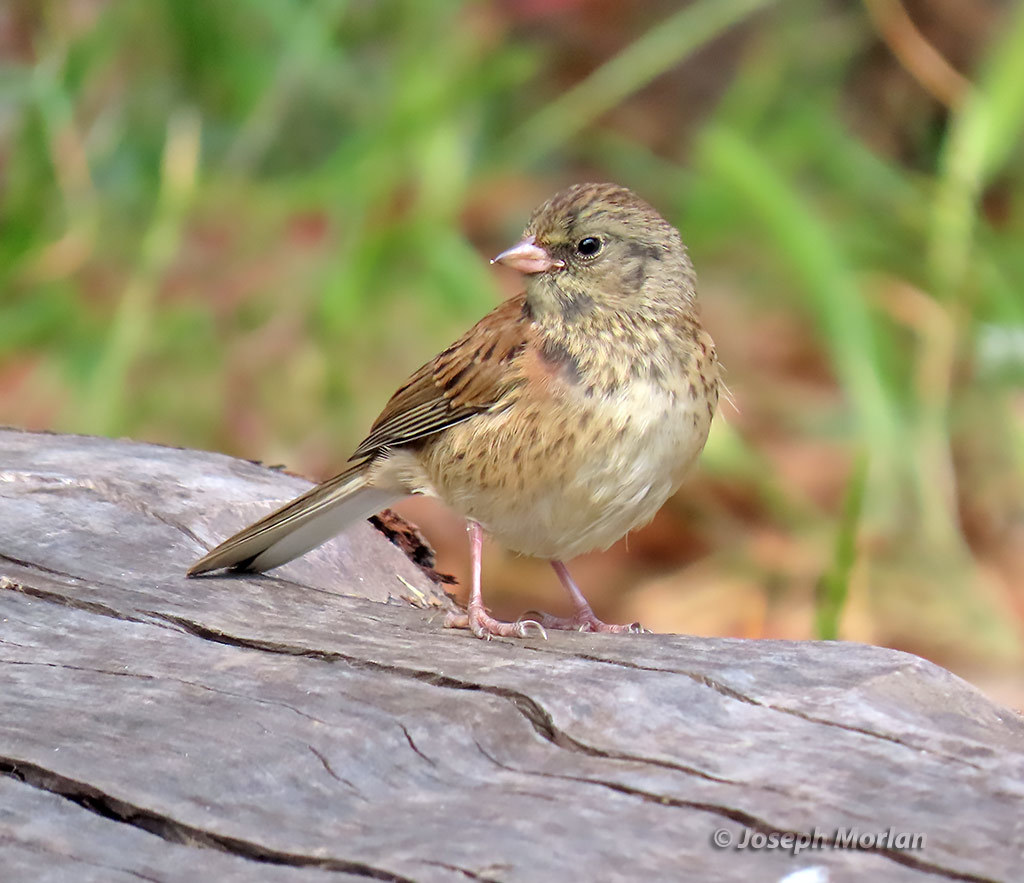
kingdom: Animalia
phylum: Chordata
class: Aves
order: Passeriformes
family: Passerellidae
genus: Junco
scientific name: Junco hyemalis
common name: Dark-eyed junco
